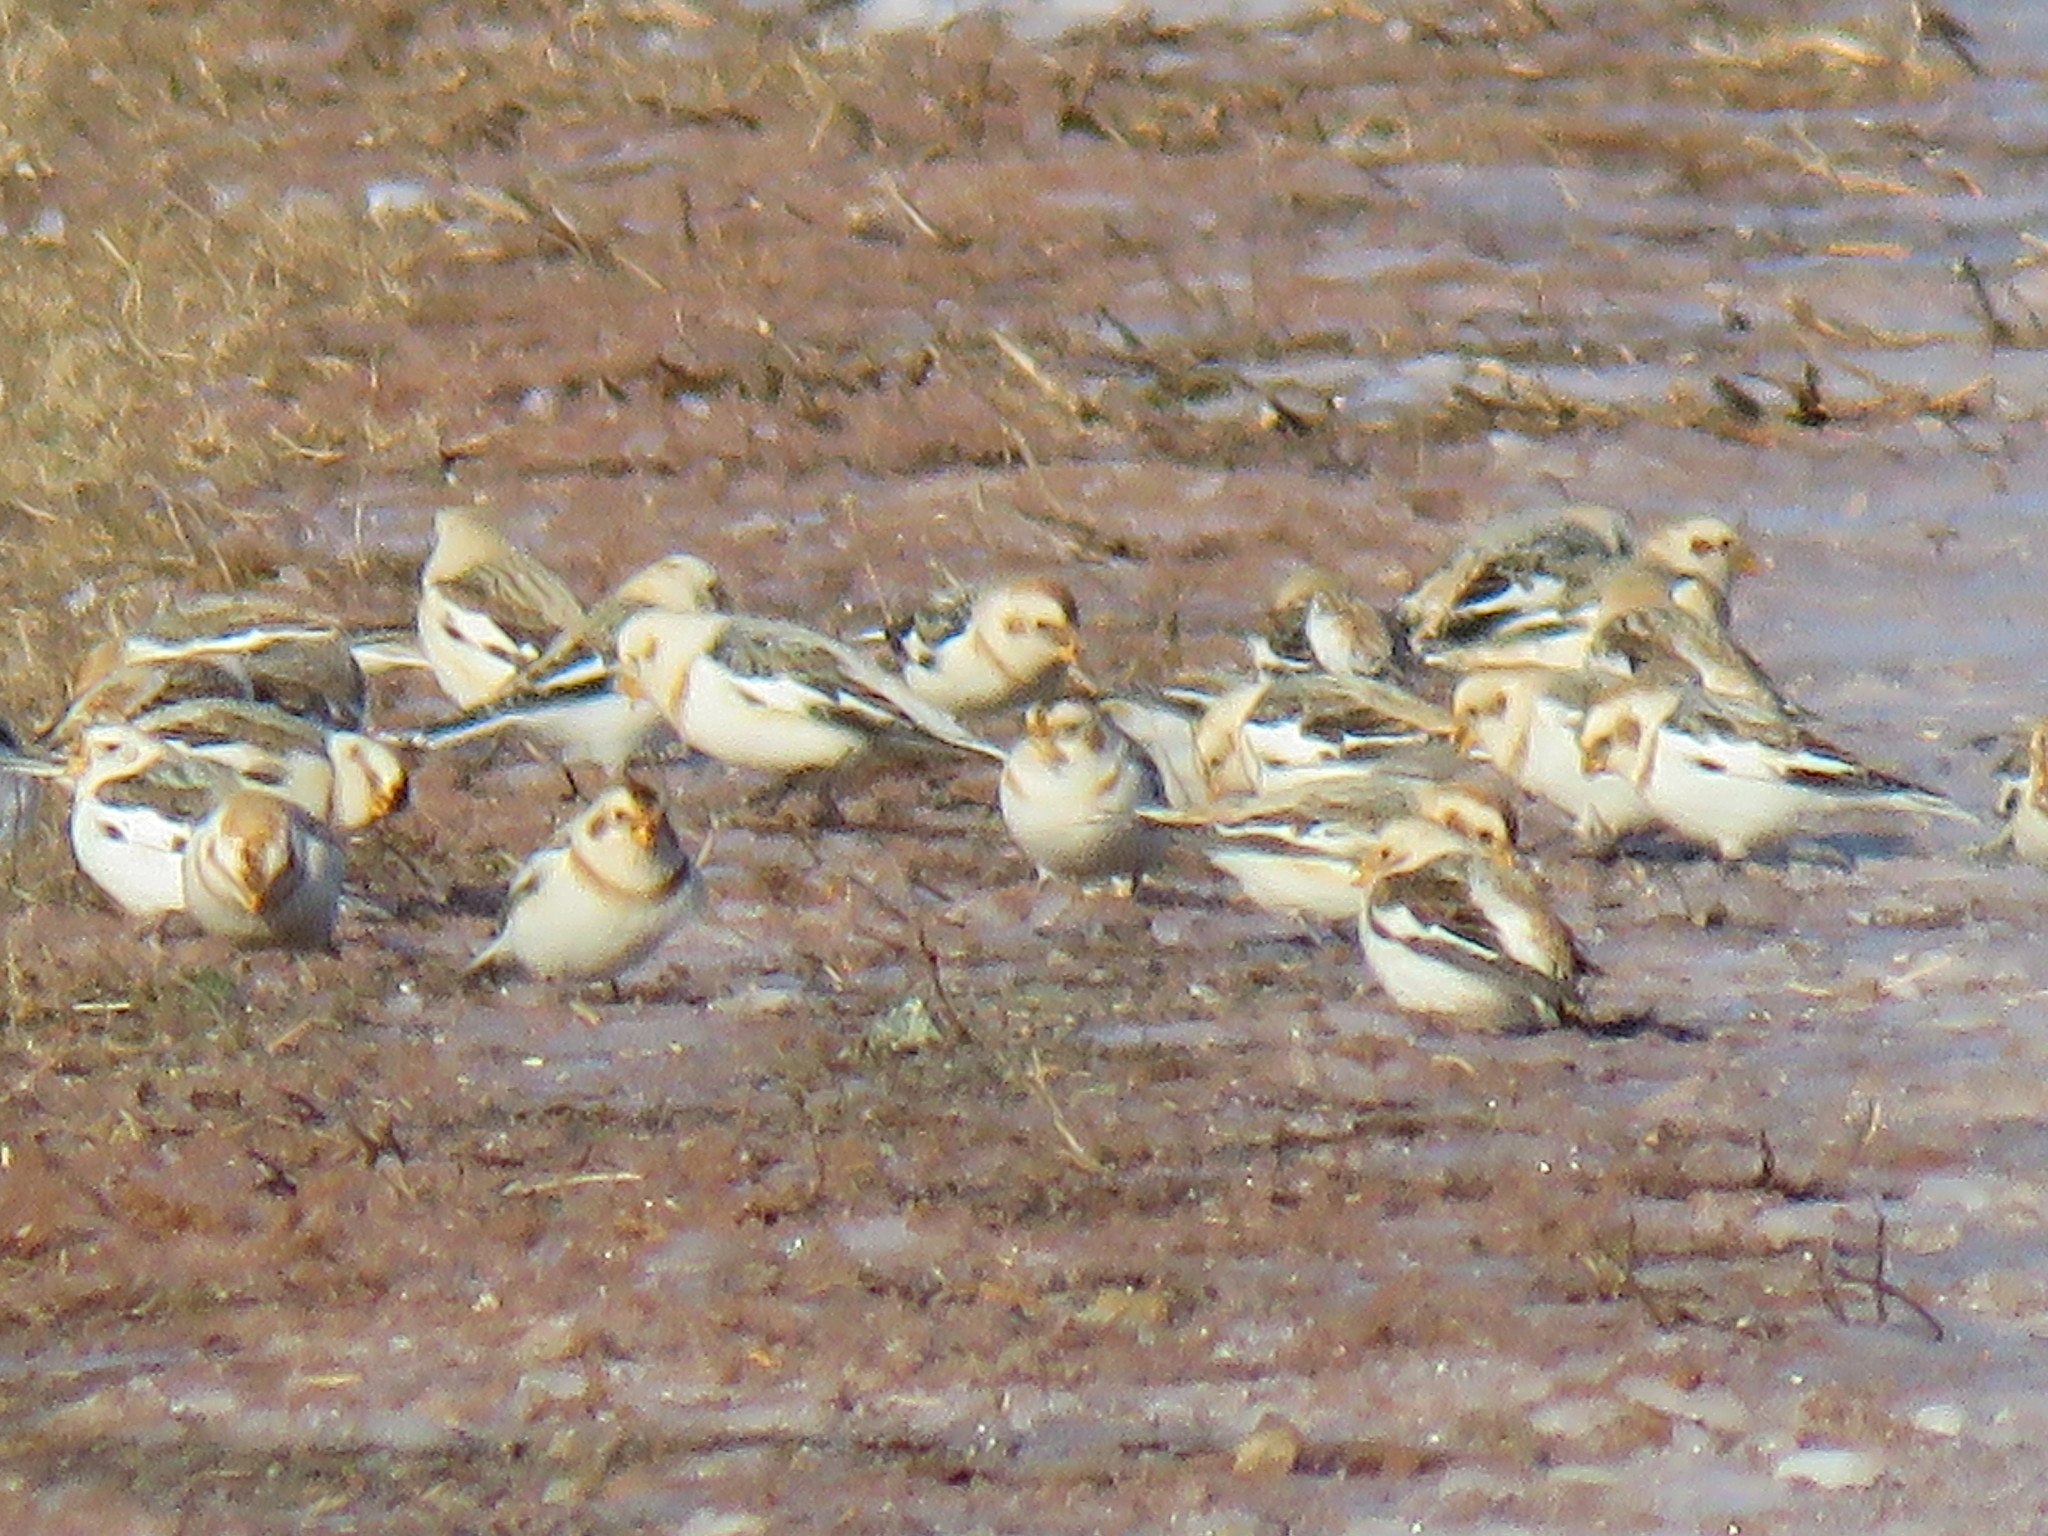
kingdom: Animalia
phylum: Chordata
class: Aves
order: Passeriformes
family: Calcariidae
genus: Plectrophenax
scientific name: Plectrophenax nivalis
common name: Snow bunting
